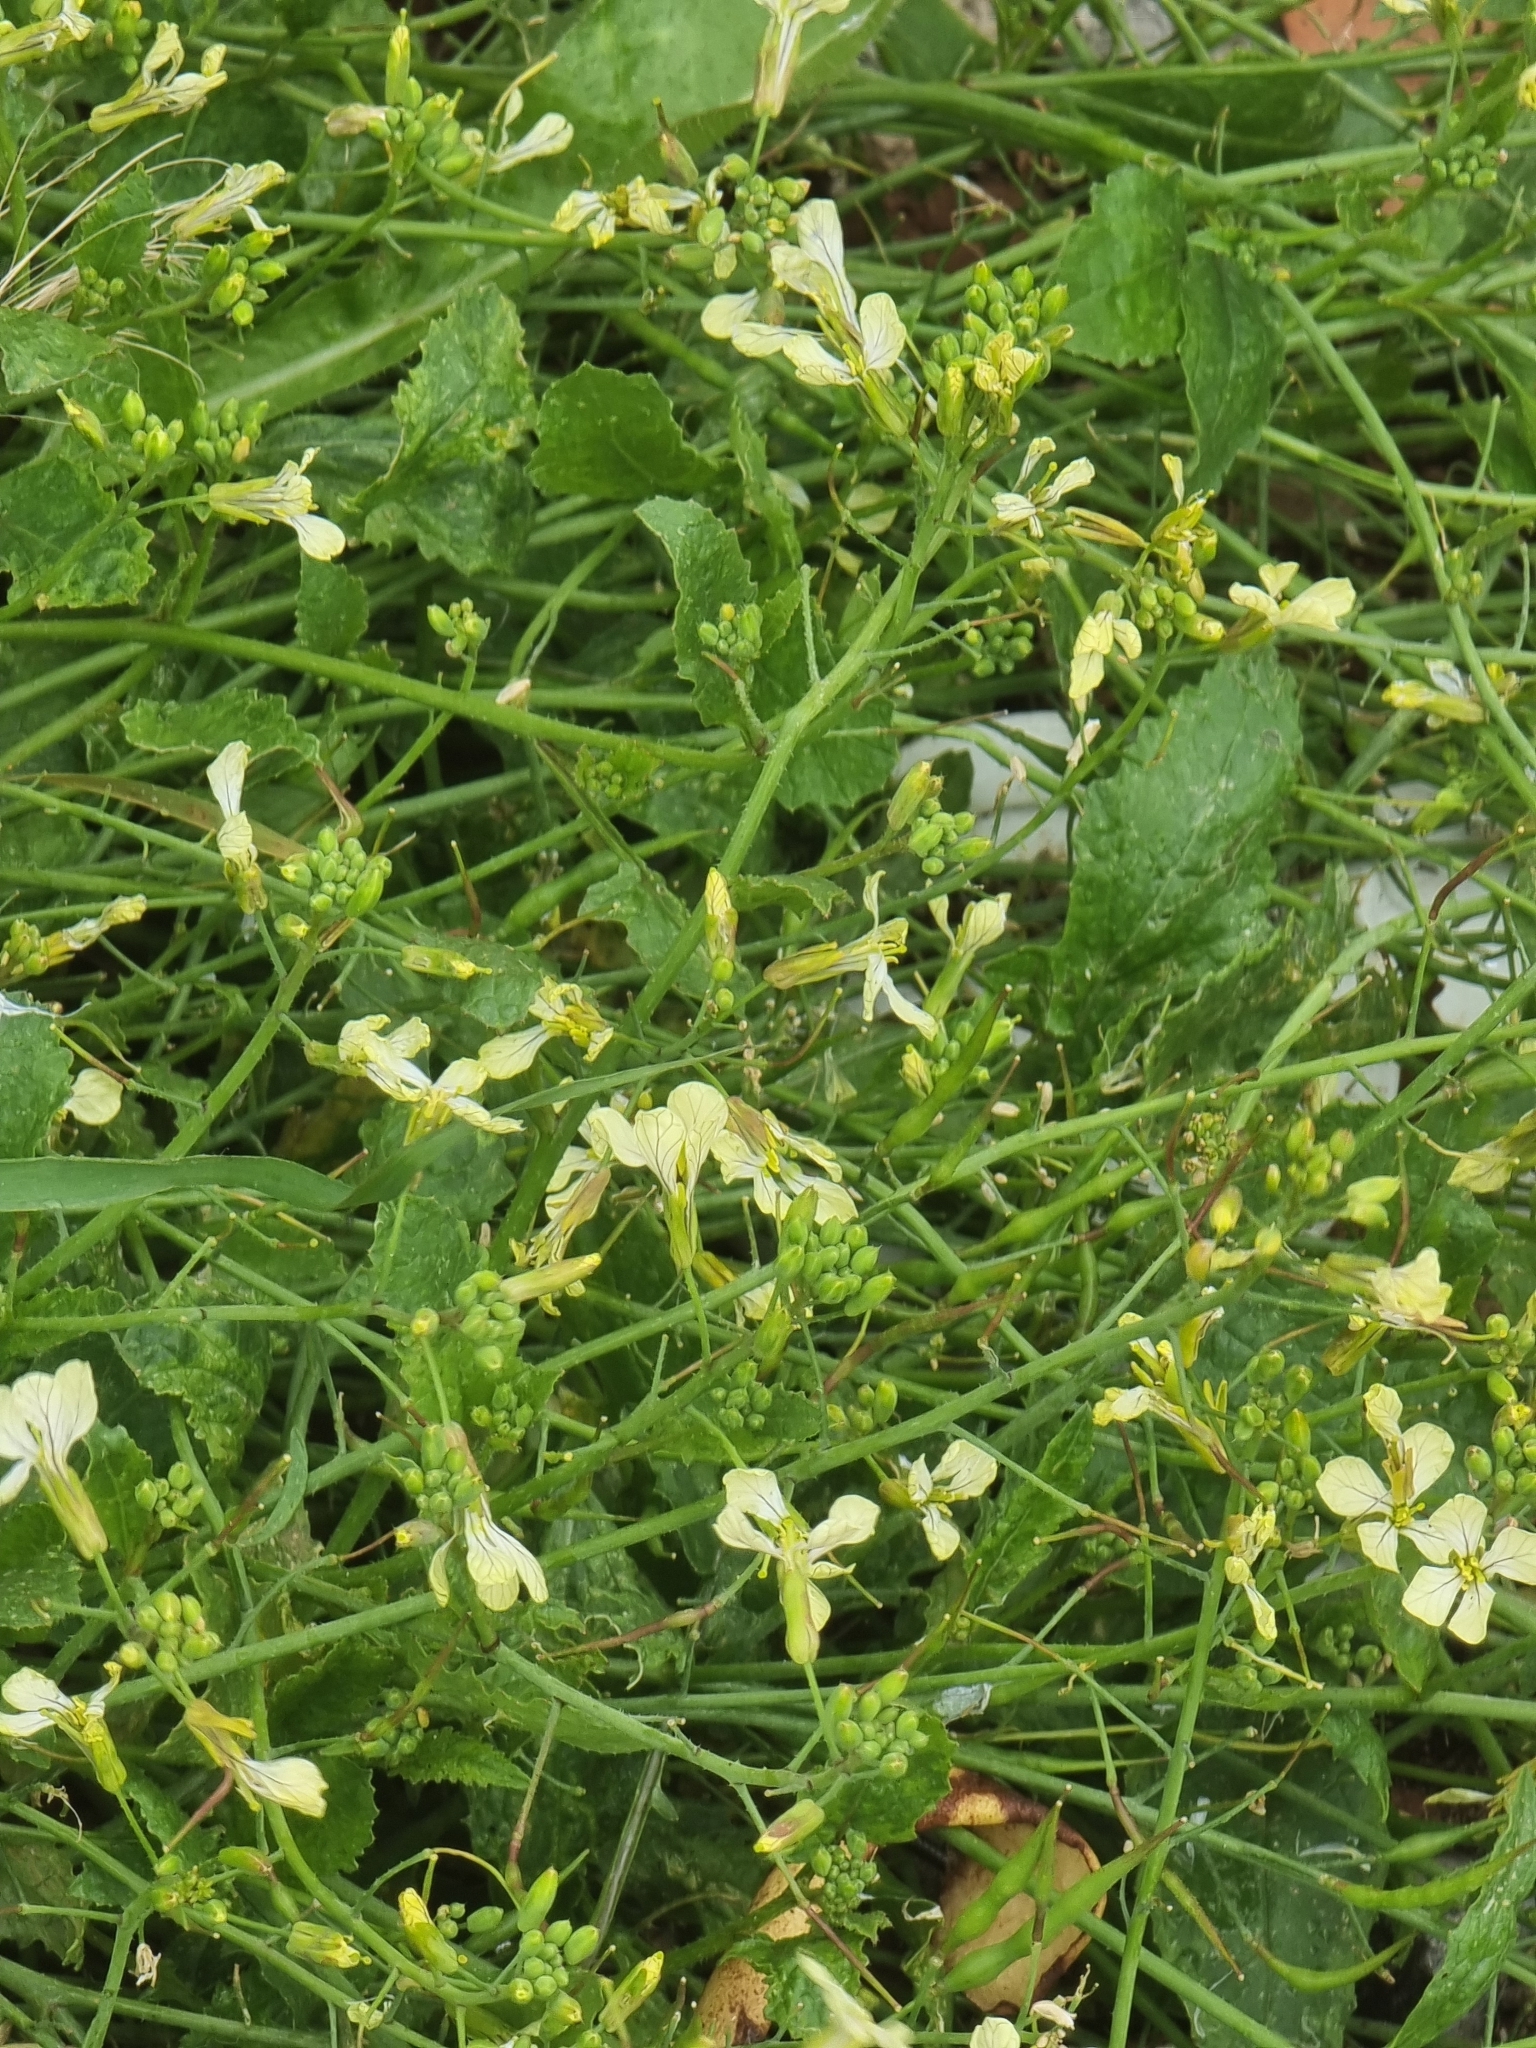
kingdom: Plantae
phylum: Tracheophyta
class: Magnoliopsida
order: Brassicales
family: Brassicaceae
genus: Raphanus
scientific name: Raphanus raphanistrum
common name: Wild radish
